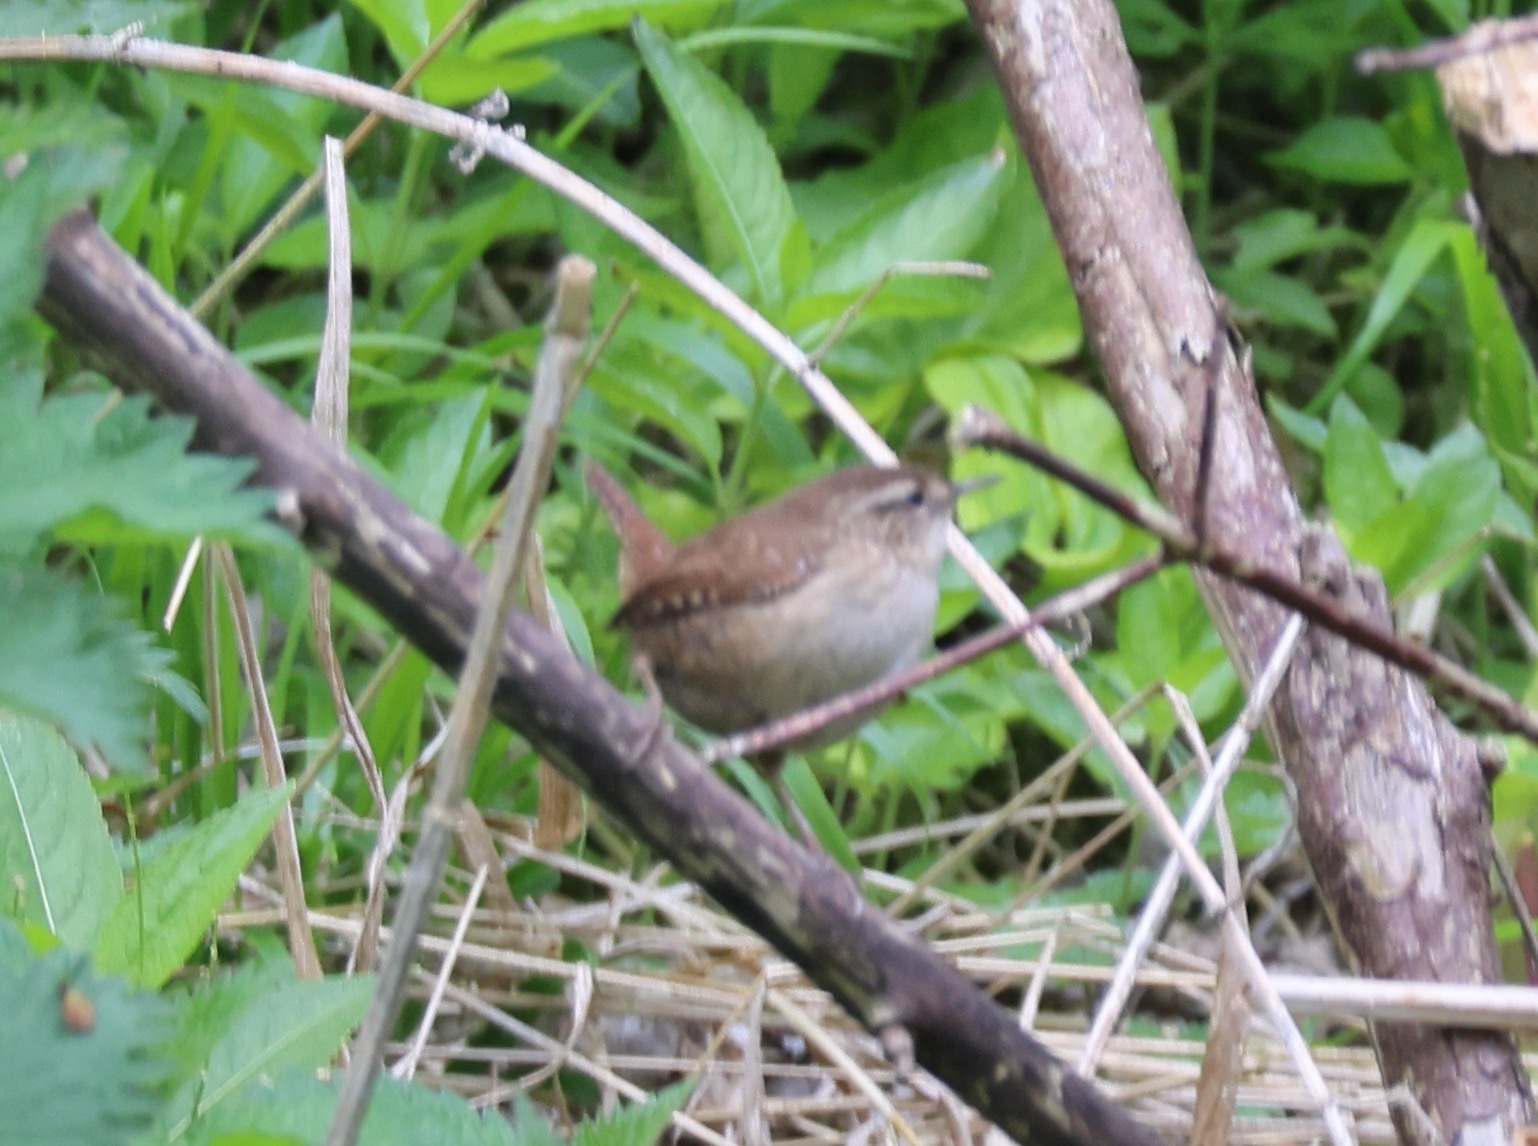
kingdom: Animalia
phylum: Chordata
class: Aves
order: Passeriformes
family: Troglodytidae
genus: Troglodytes
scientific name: Troglodytes troglodytes
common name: Eurasian wren
